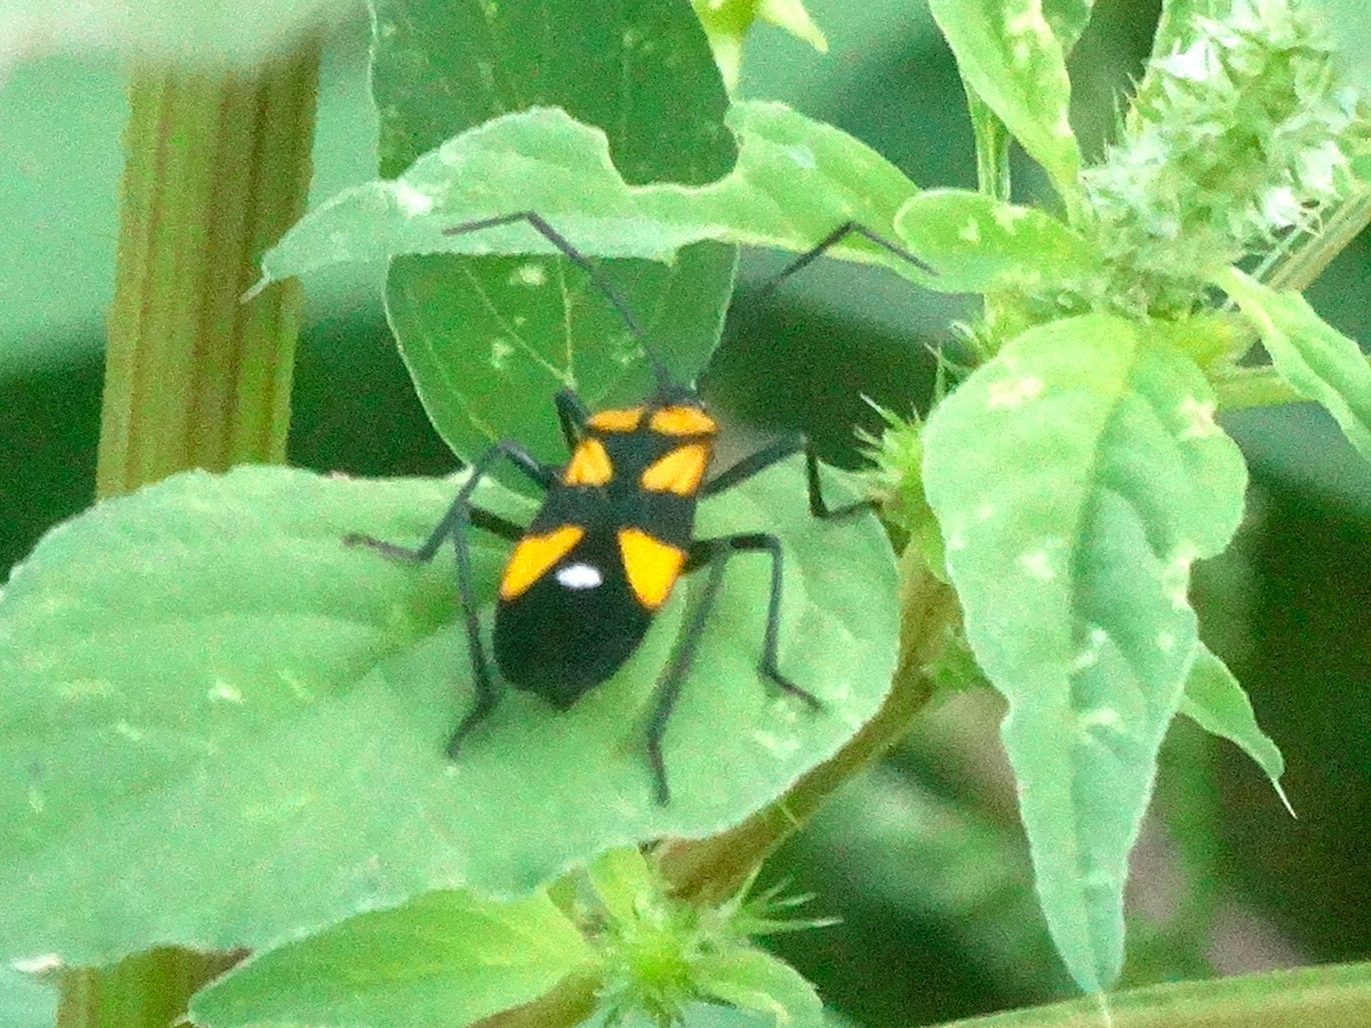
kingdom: Animalia
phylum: Arthropoda
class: Insecta
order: Hemiptera
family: Lygaeidae
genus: Oncopeltus
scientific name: Oncopeltus sexmaculatus
